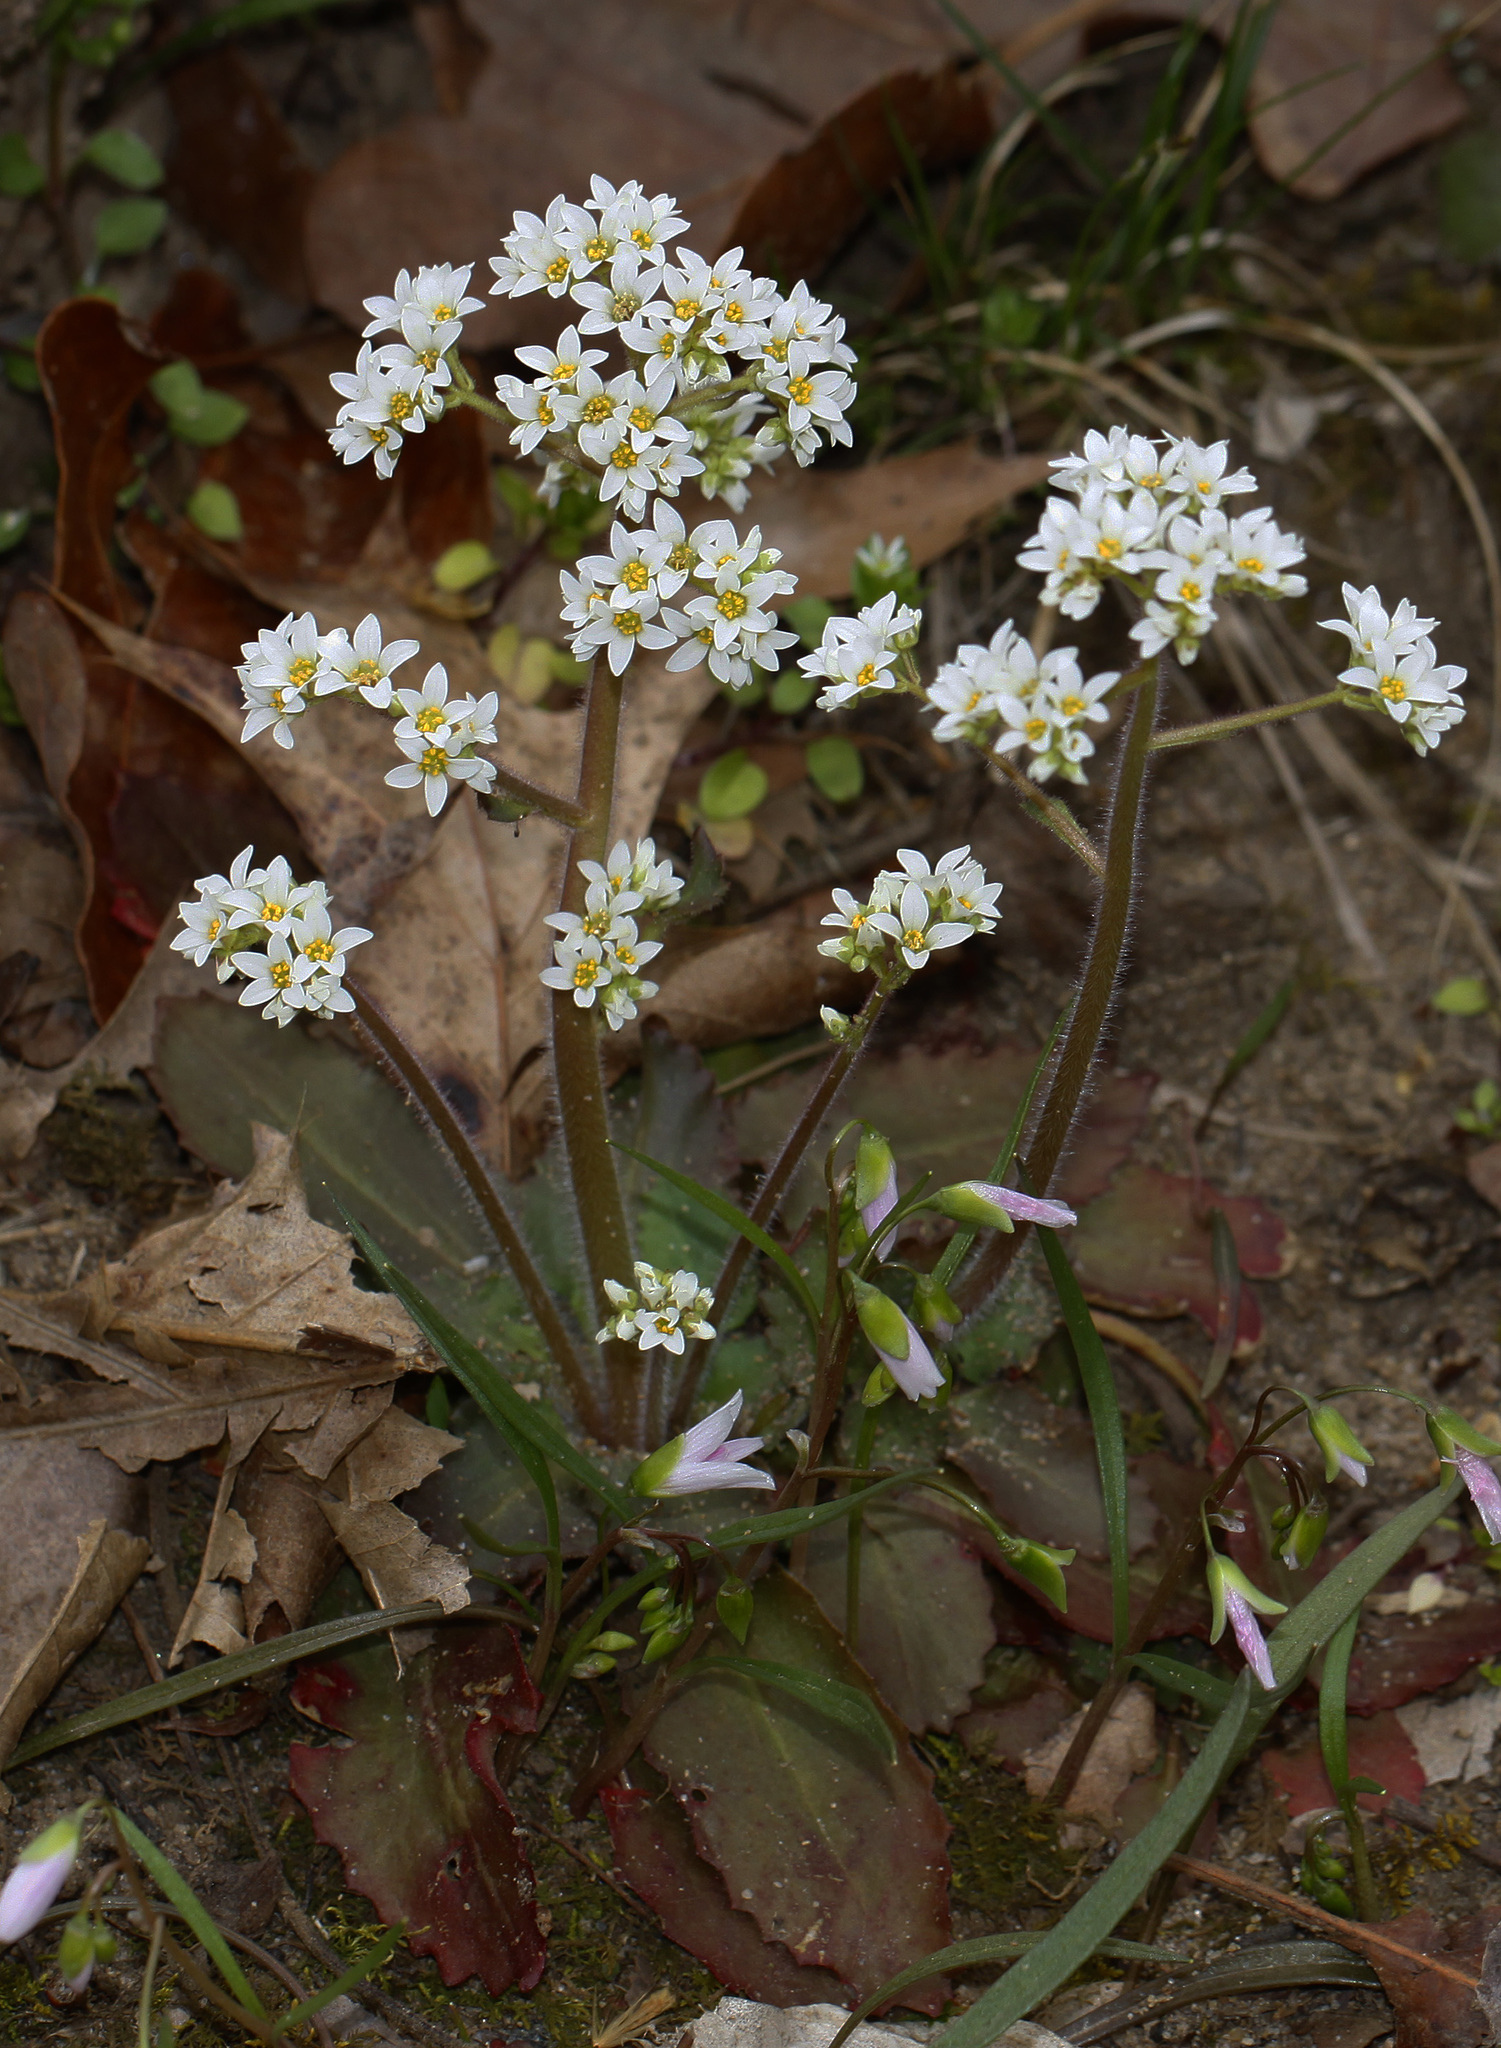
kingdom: Plantae
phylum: Tracheophyta
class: Magnoliopsida
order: Saxifragales
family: Saxifragaceae
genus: Micranthes
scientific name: Micranthes virginiensis
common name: Early saxifrage
